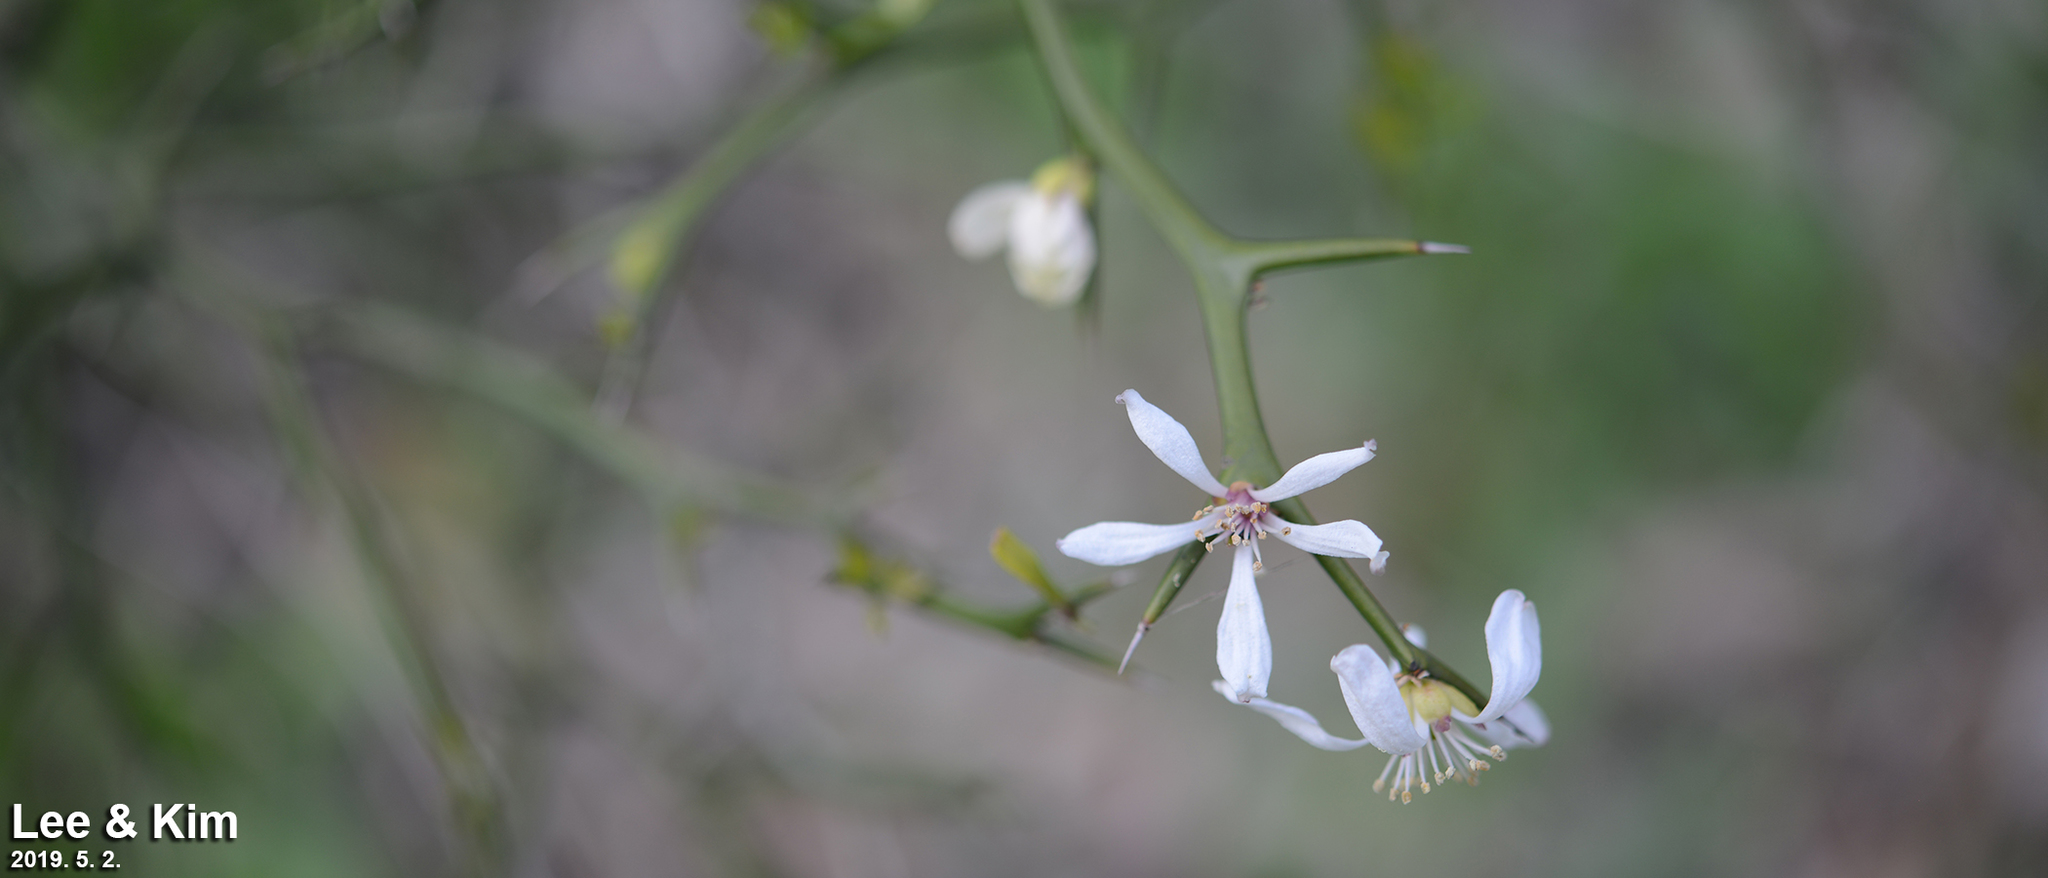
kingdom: Plantae
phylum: Tracheophyta
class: Magnoliopsida
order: Sapindales
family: Rutaceae
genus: Citrus
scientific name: Citrus trifoliata
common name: Japanese bitter-orange
